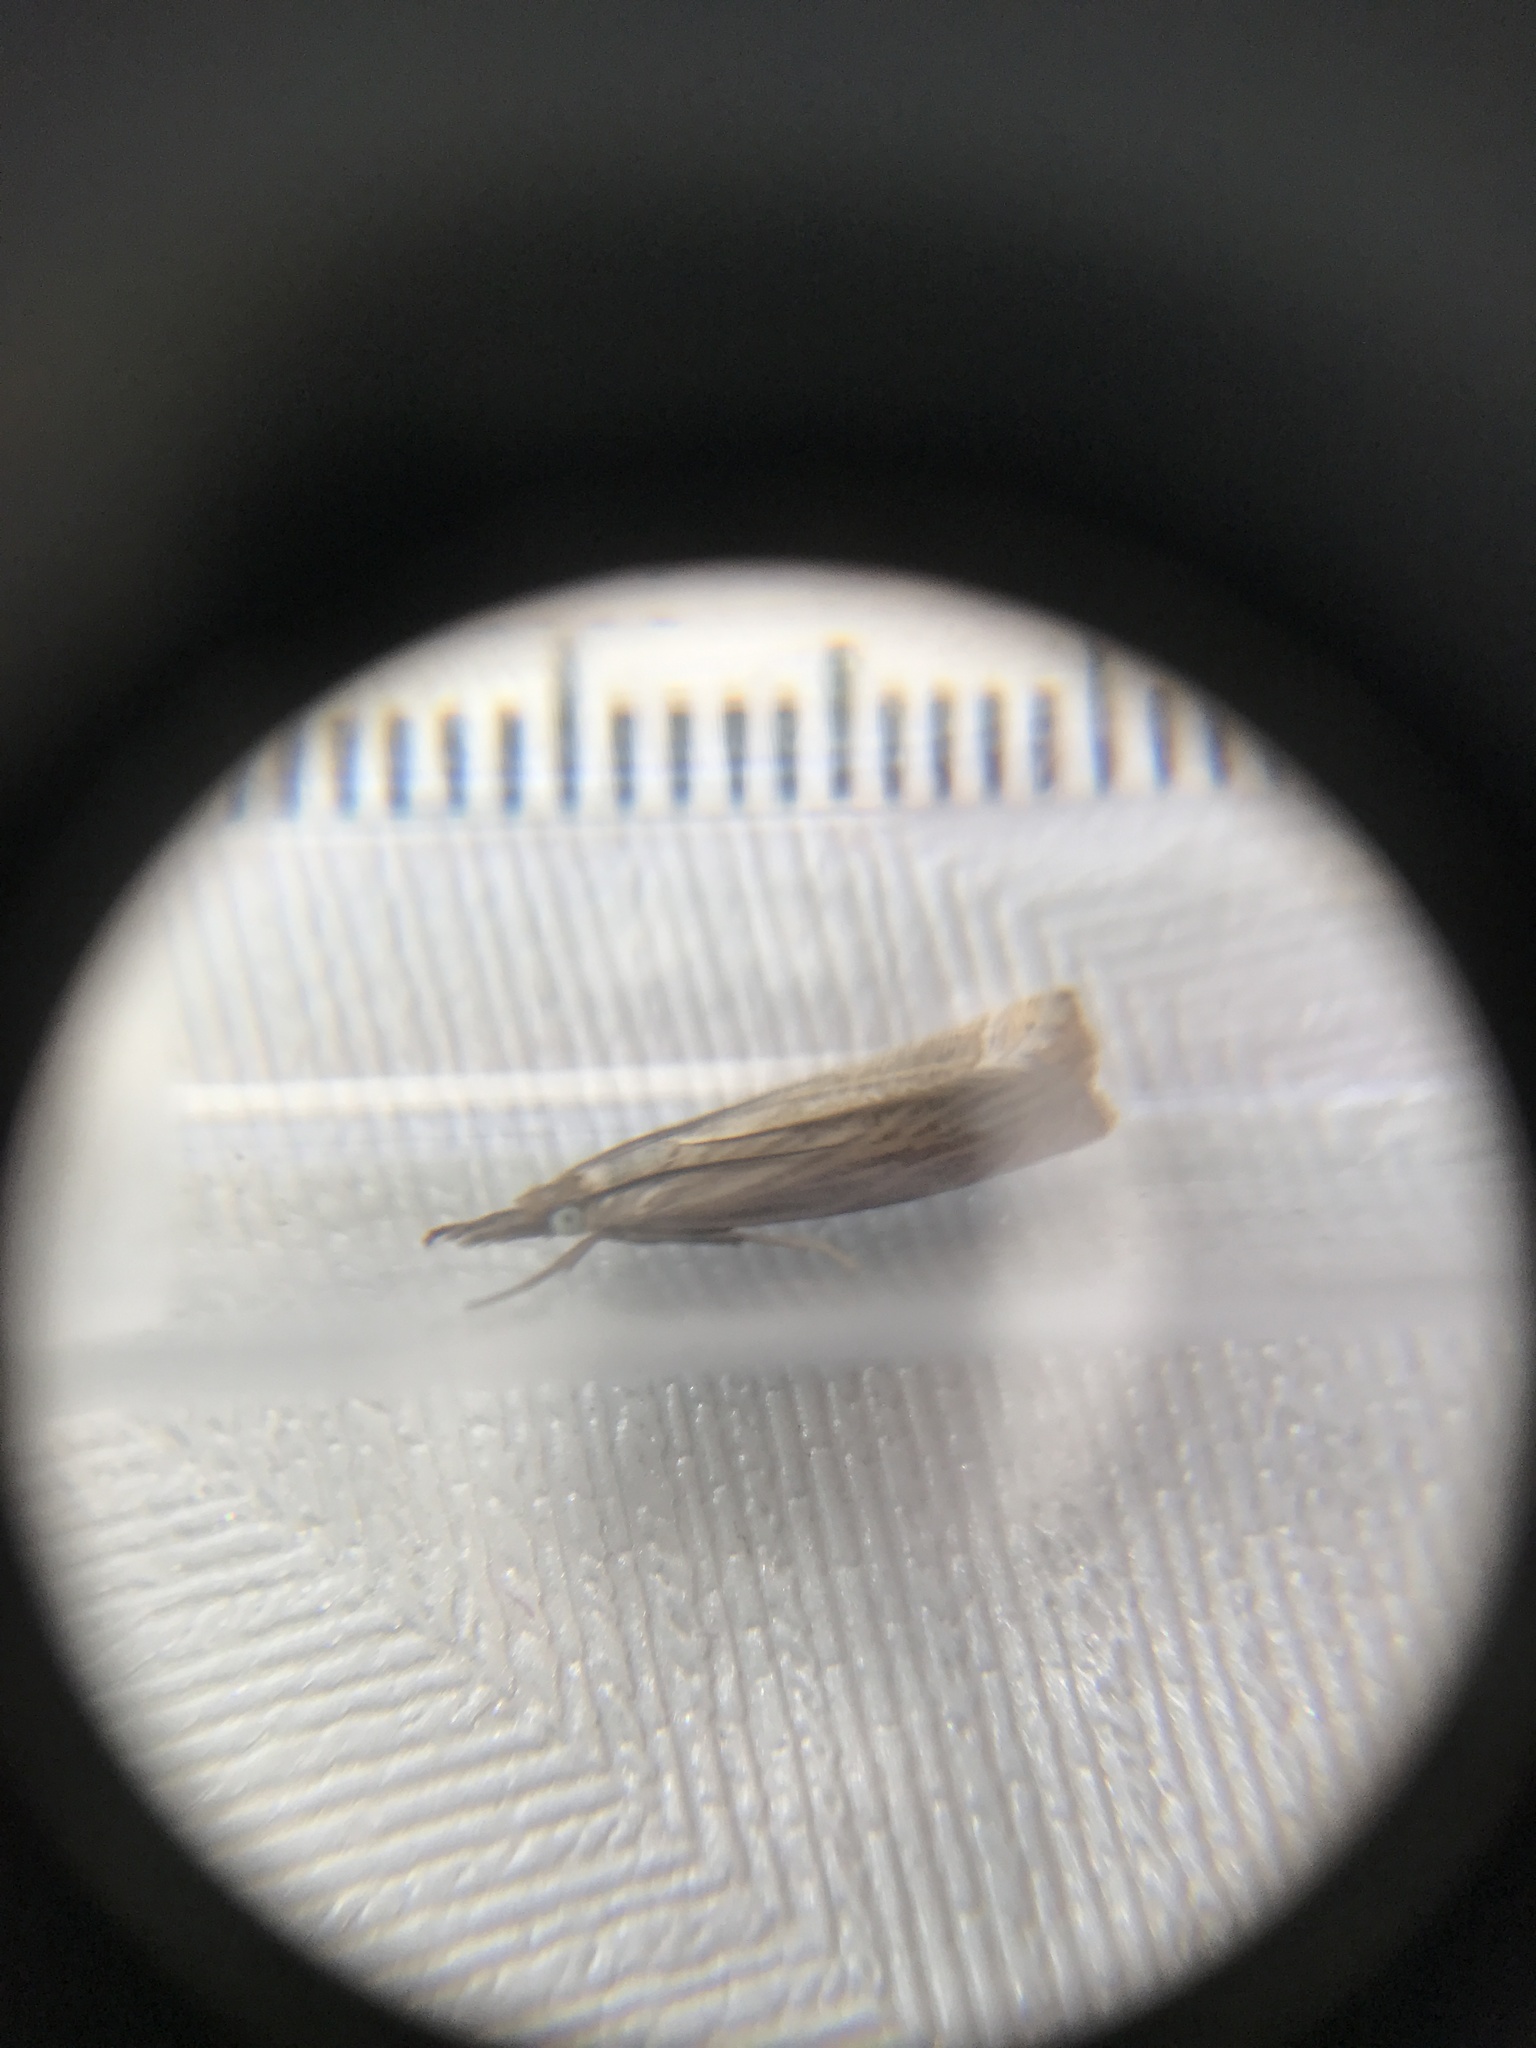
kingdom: Animalia
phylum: Arthropoda
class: Insecta
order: Lepidoptera
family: Crambidae
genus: Agriphila
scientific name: Agriphila straminella
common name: Straw grass-veneer
